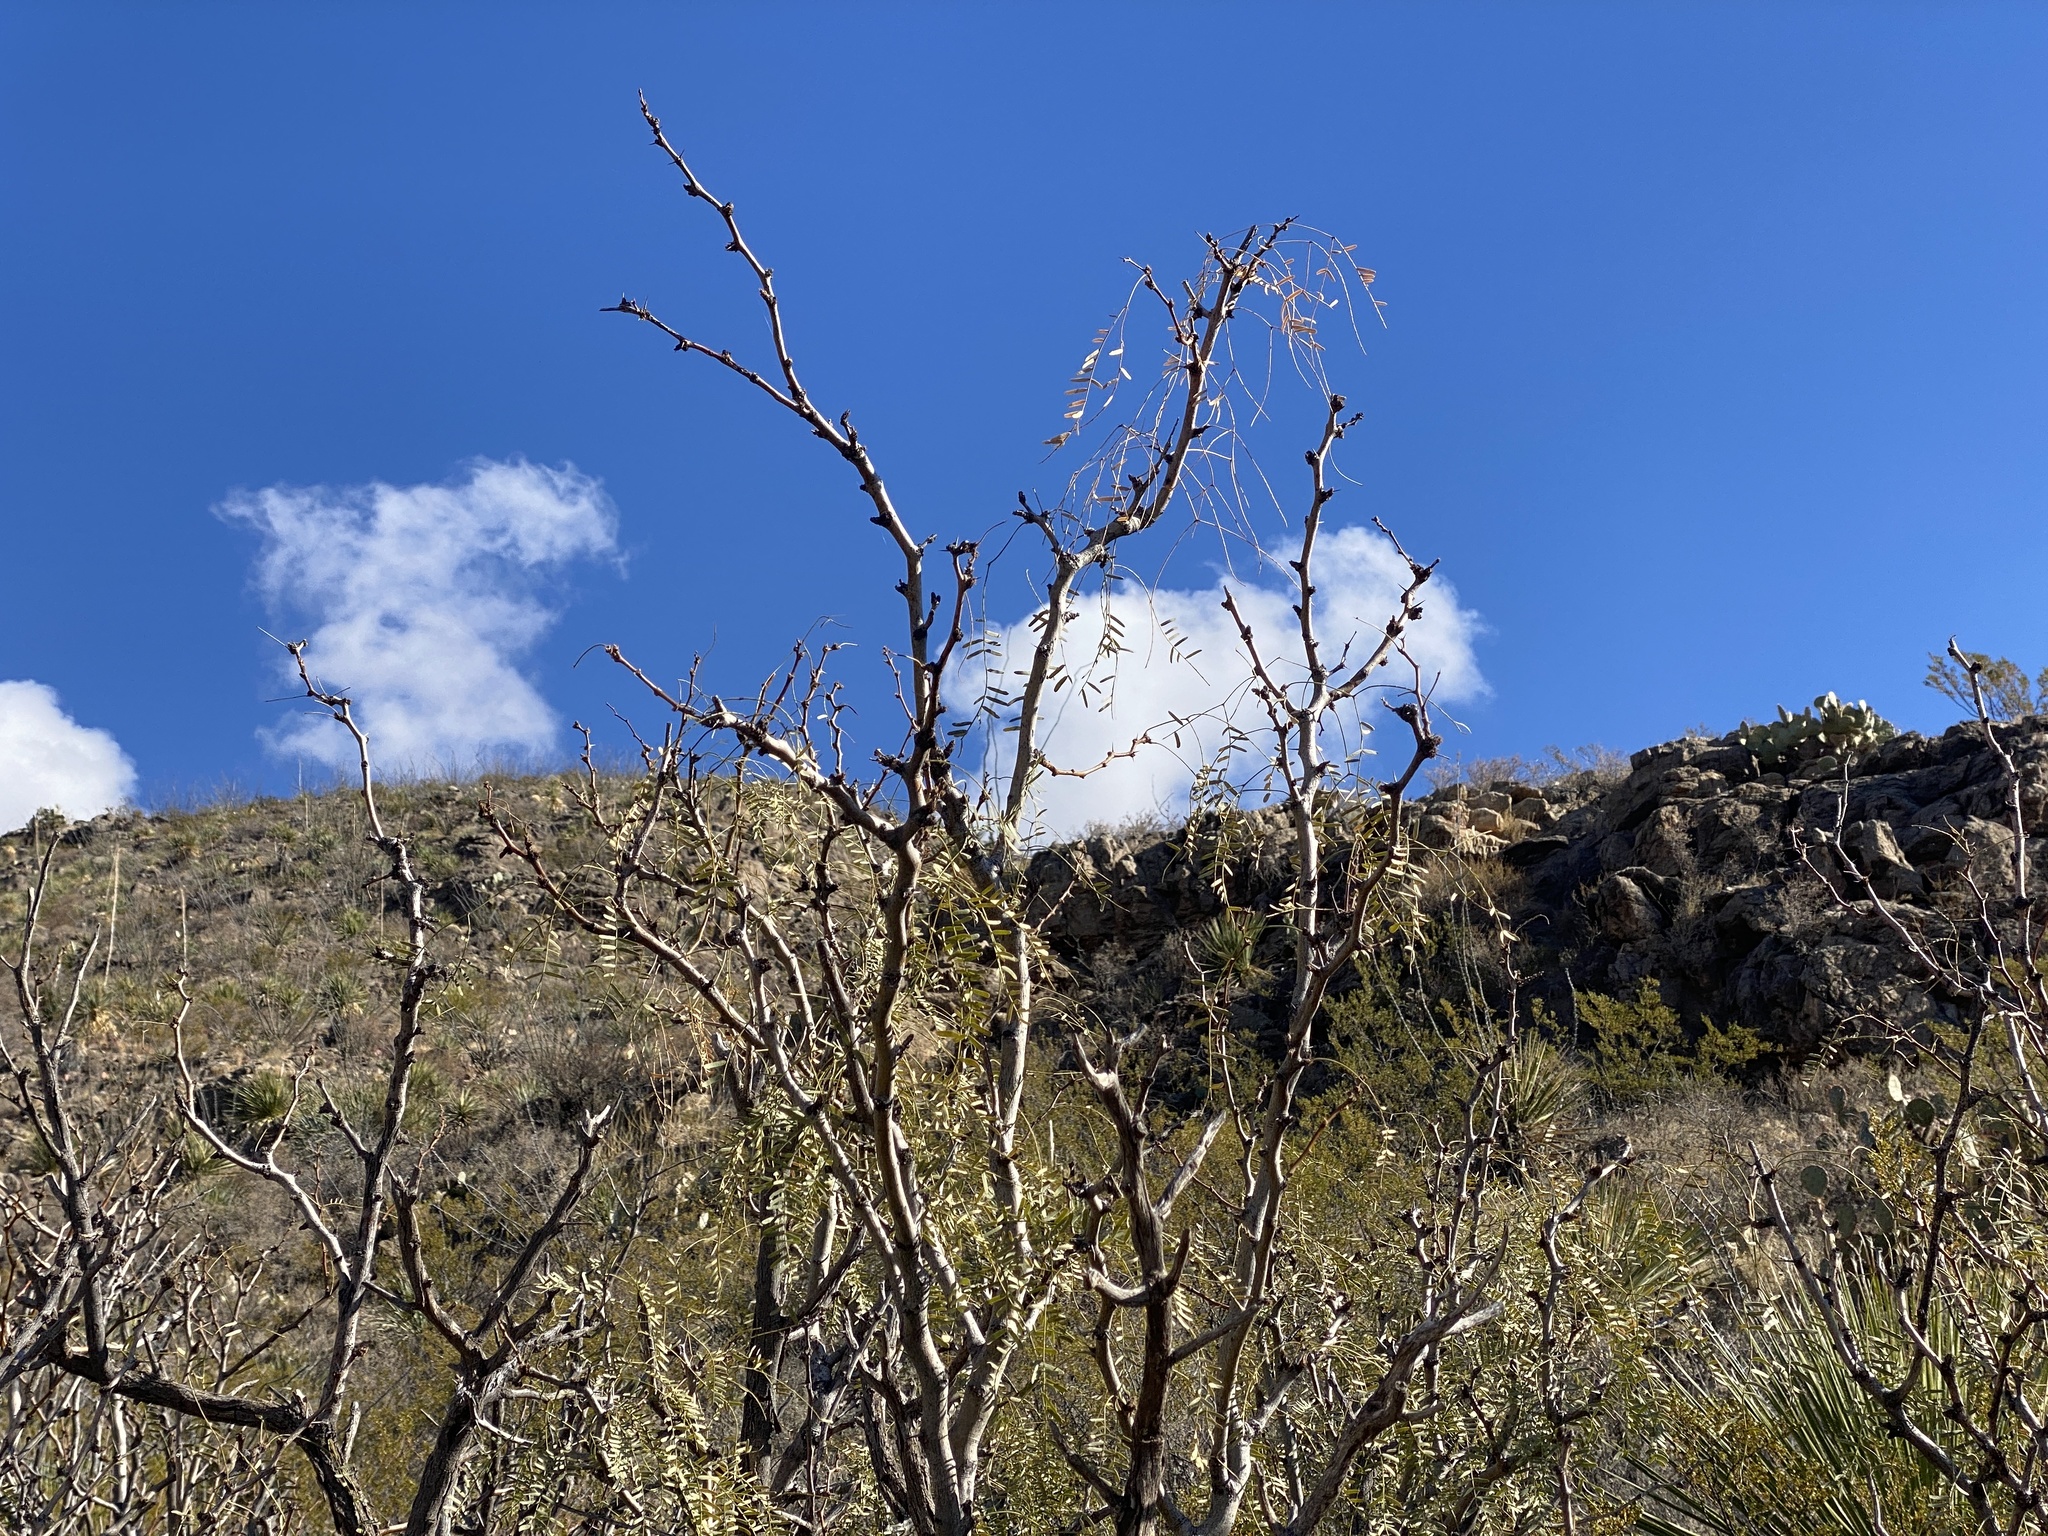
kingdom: Plantae
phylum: Tracheophyta
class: Magnoliopsida
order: Fabales
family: Fabaceae
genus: Prosopis
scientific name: Prosopis glandulosa
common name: Honey mesquite
